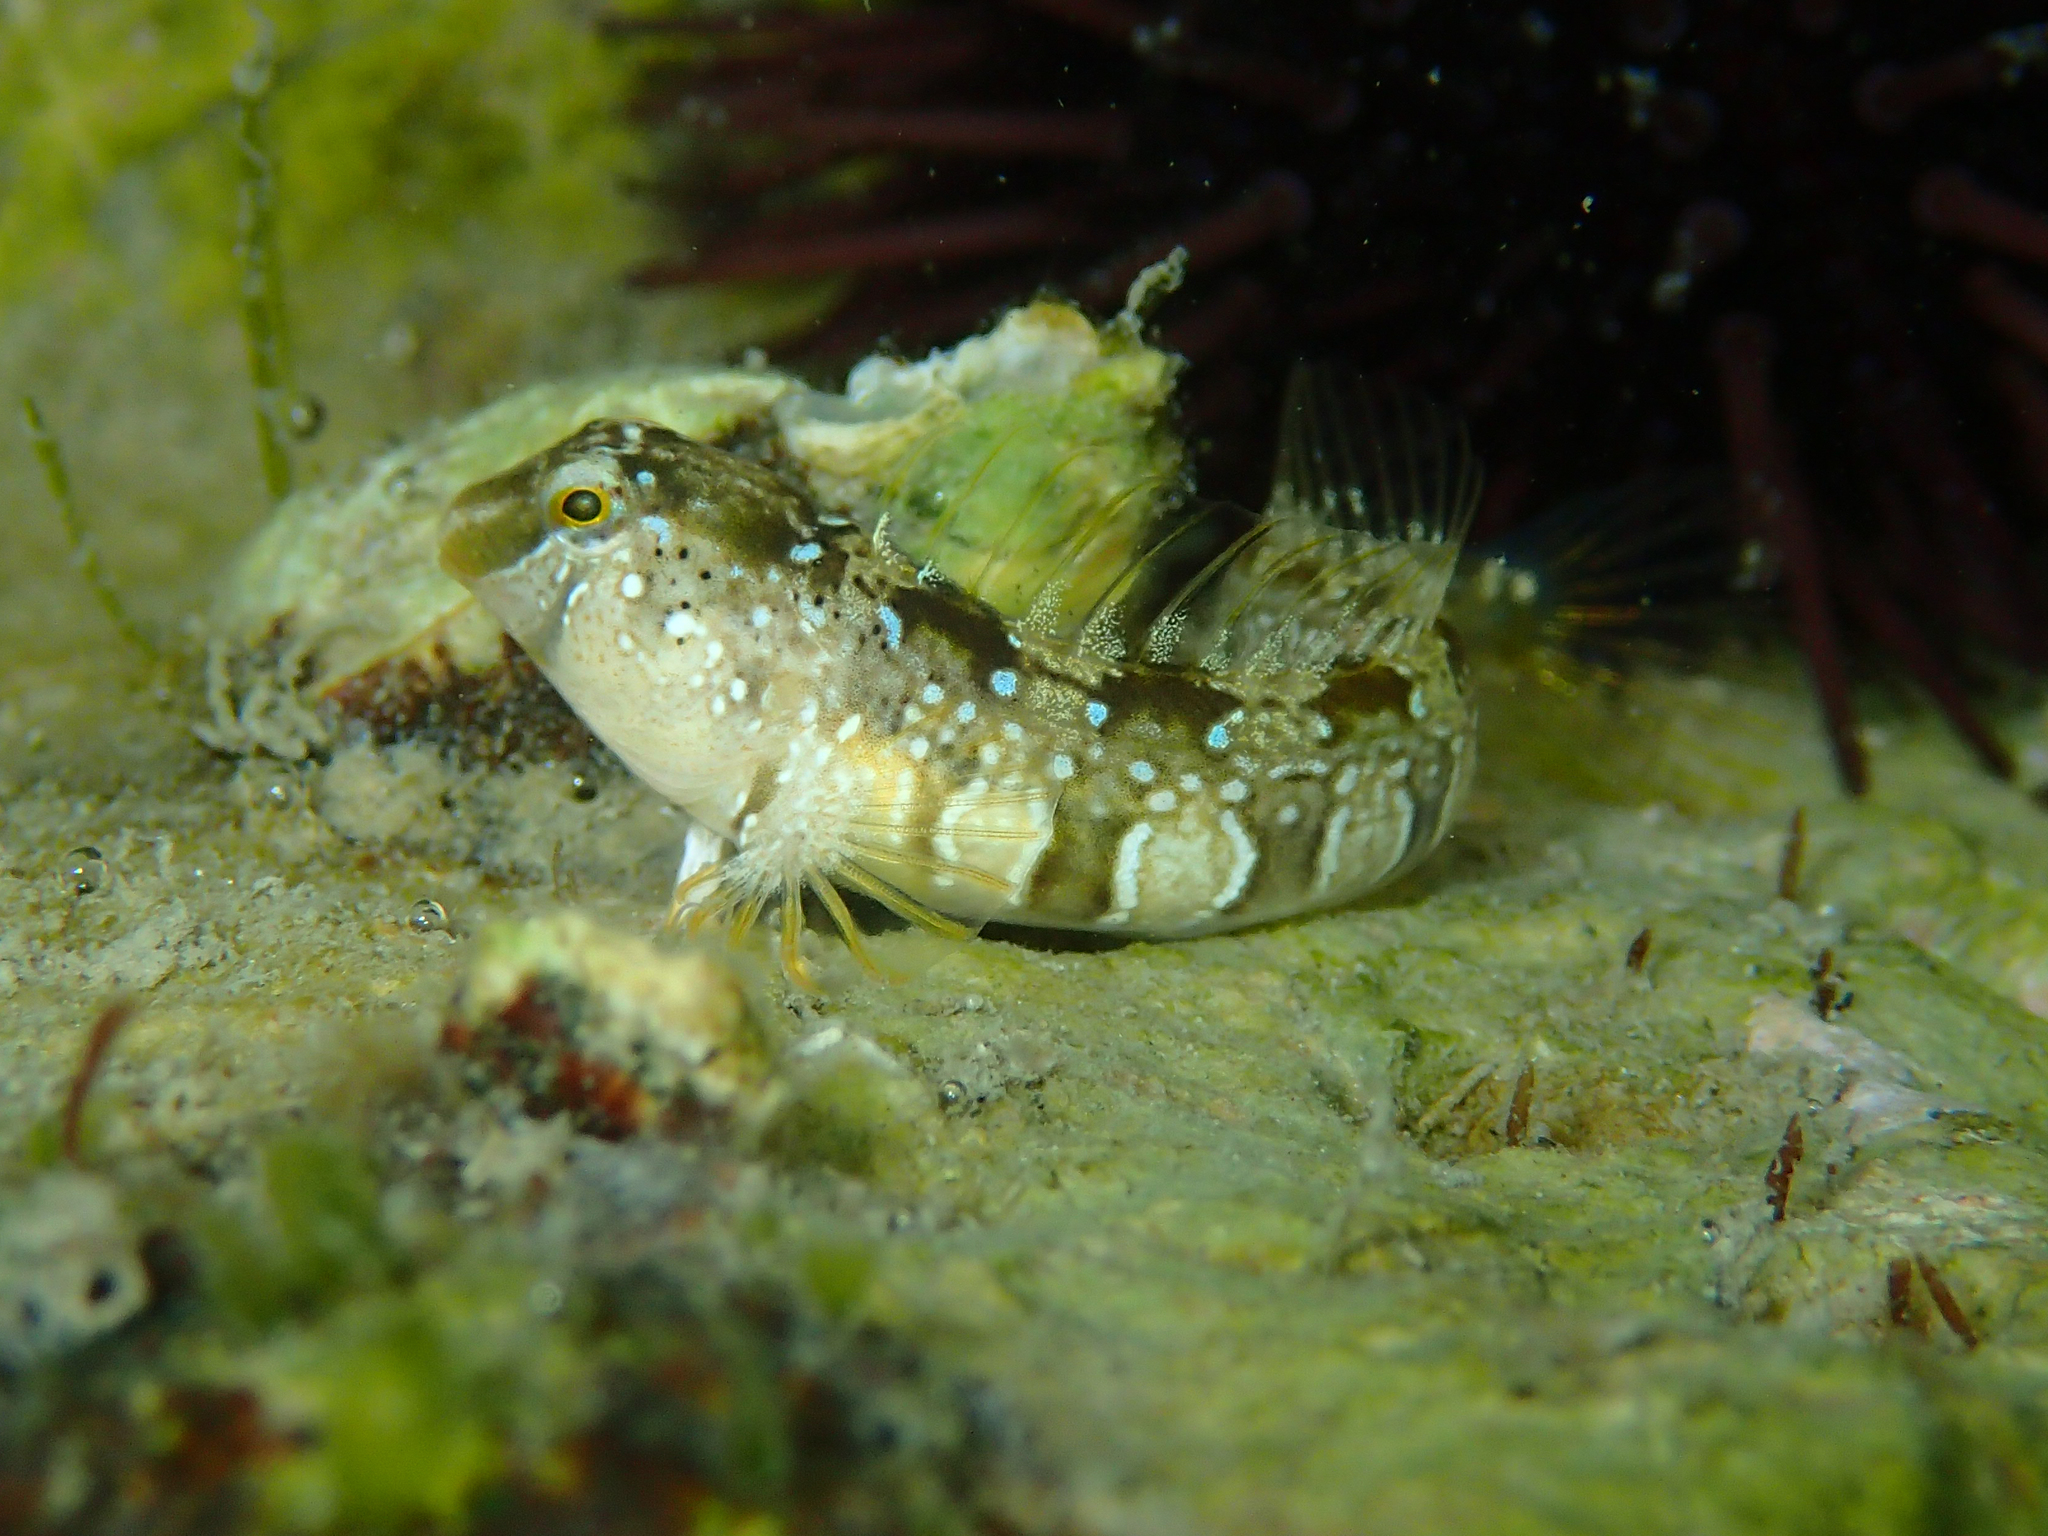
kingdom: Animalia
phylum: Chordata
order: Perciformes
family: Blenniidae
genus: Microlipophrys
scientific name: Microlipophrys dalmatinus
